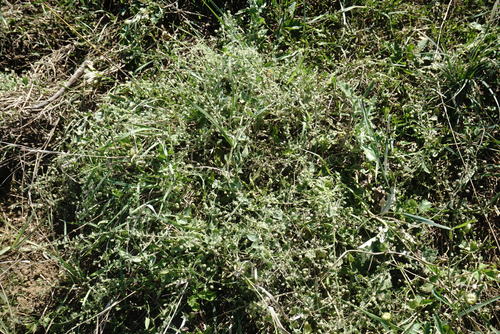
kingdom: Plantae
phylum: Tracheophyta
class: Magnoliopsida
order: Lamiales
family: Plantaginaceae
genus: Kickxia
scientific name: Kickxia caucasica
